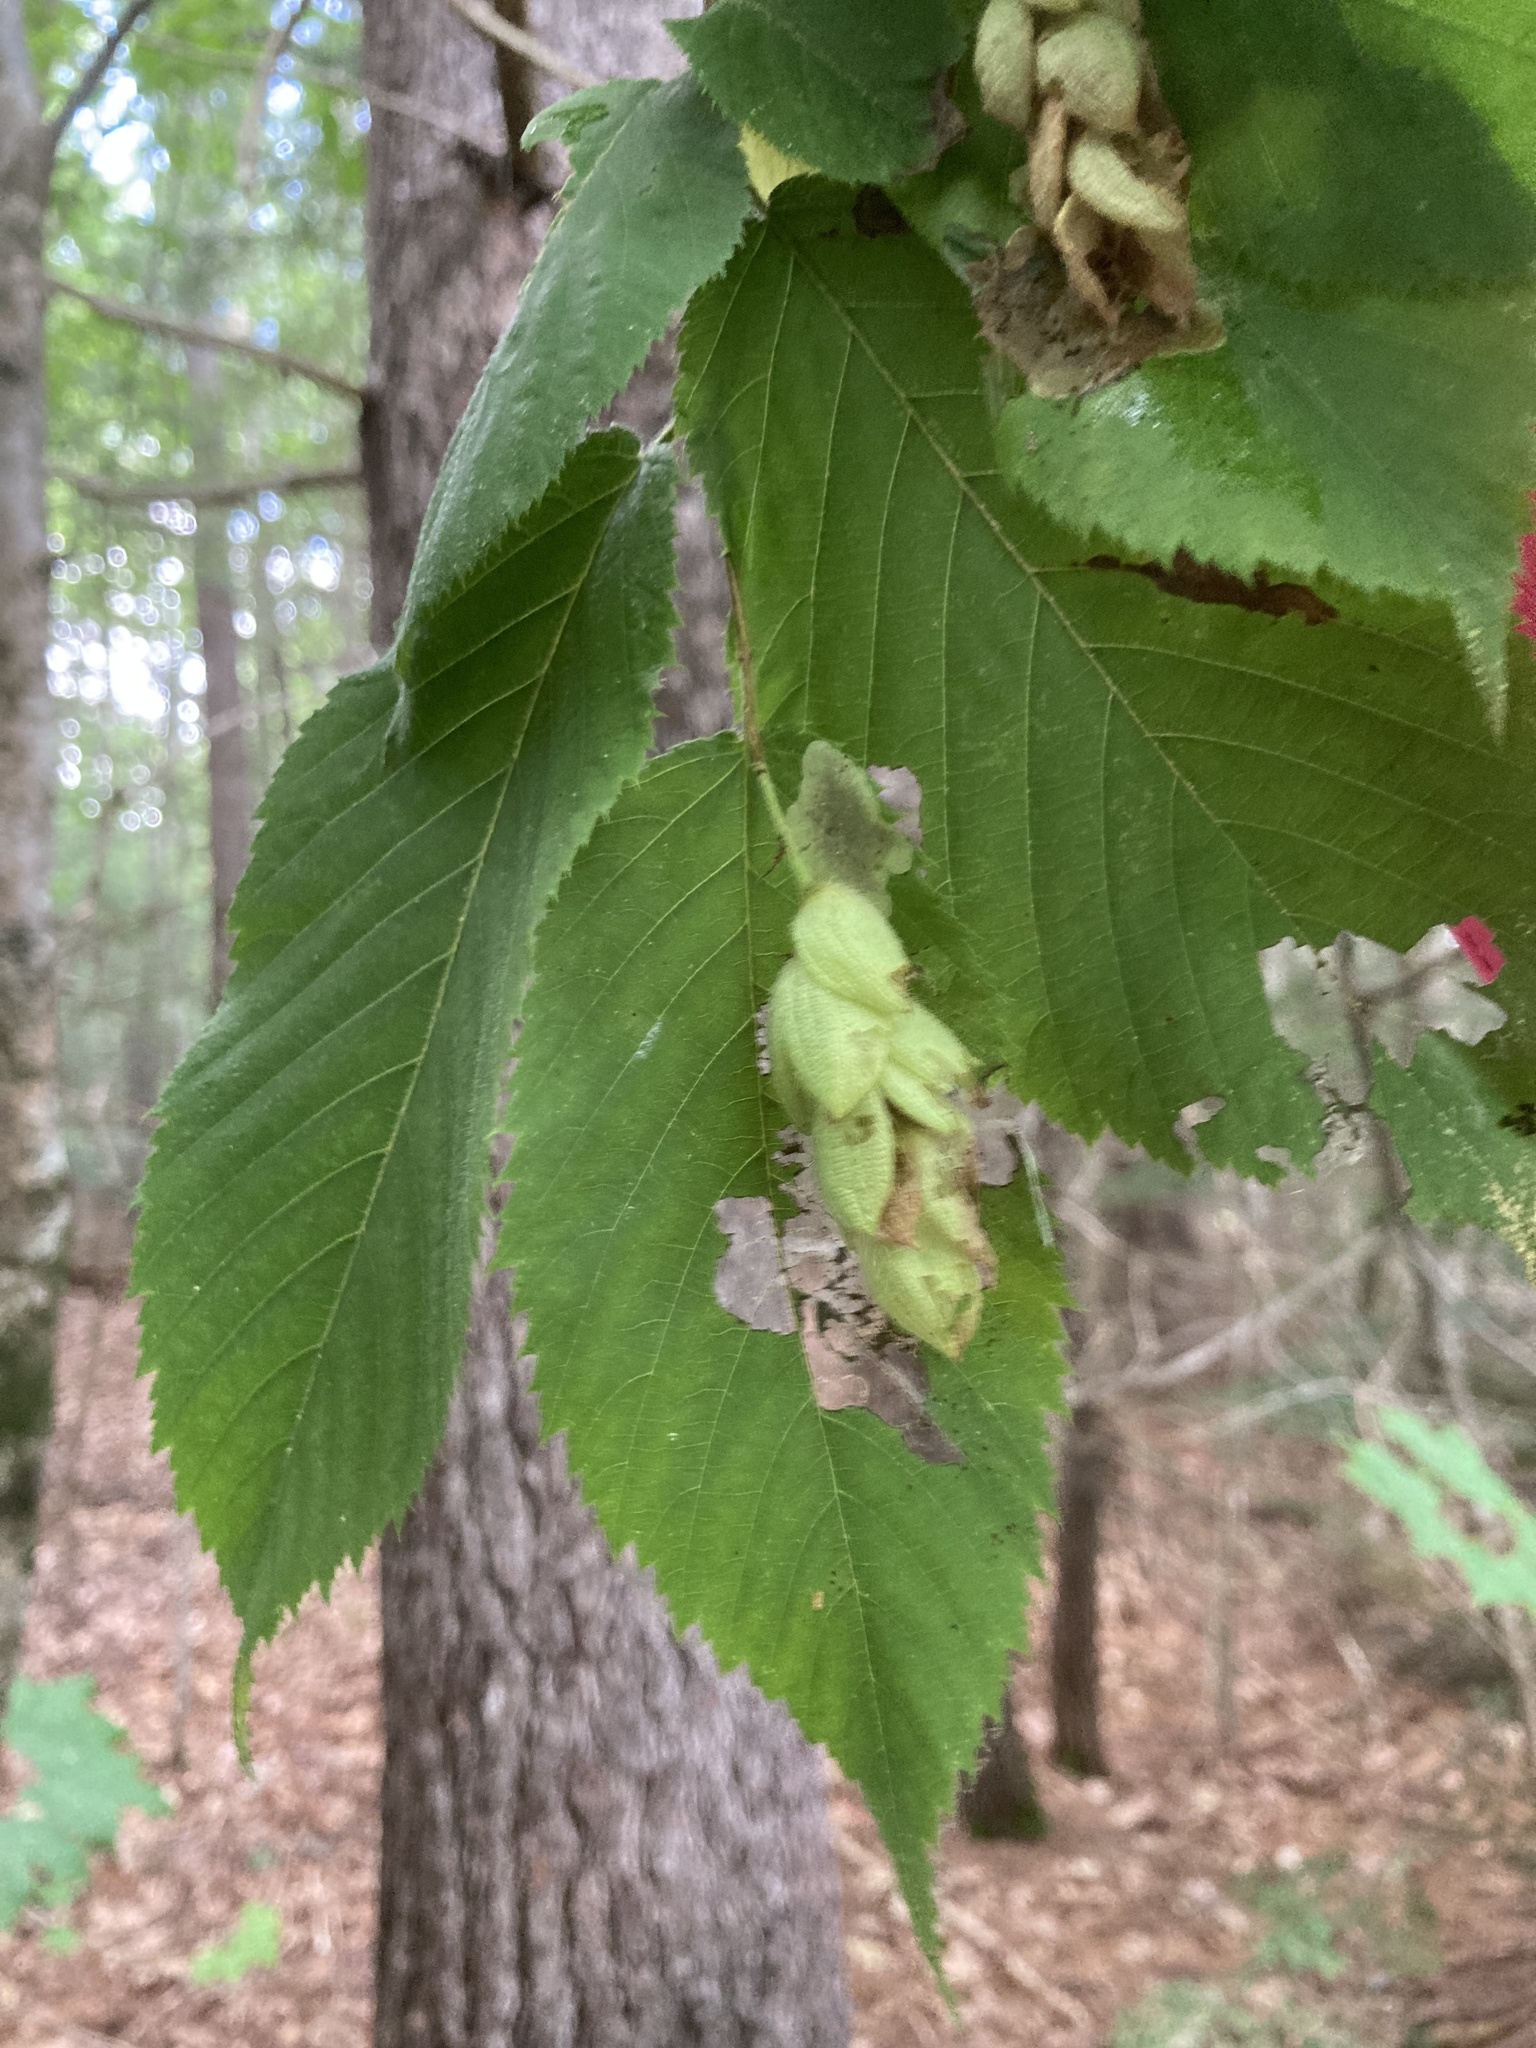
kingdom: Plantae
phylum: Tracheophyta
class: Magnoliopsida
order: Fagales
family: Betulaceae
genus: Ostrya
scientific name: Ostrya virginiana
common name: Ironwood
